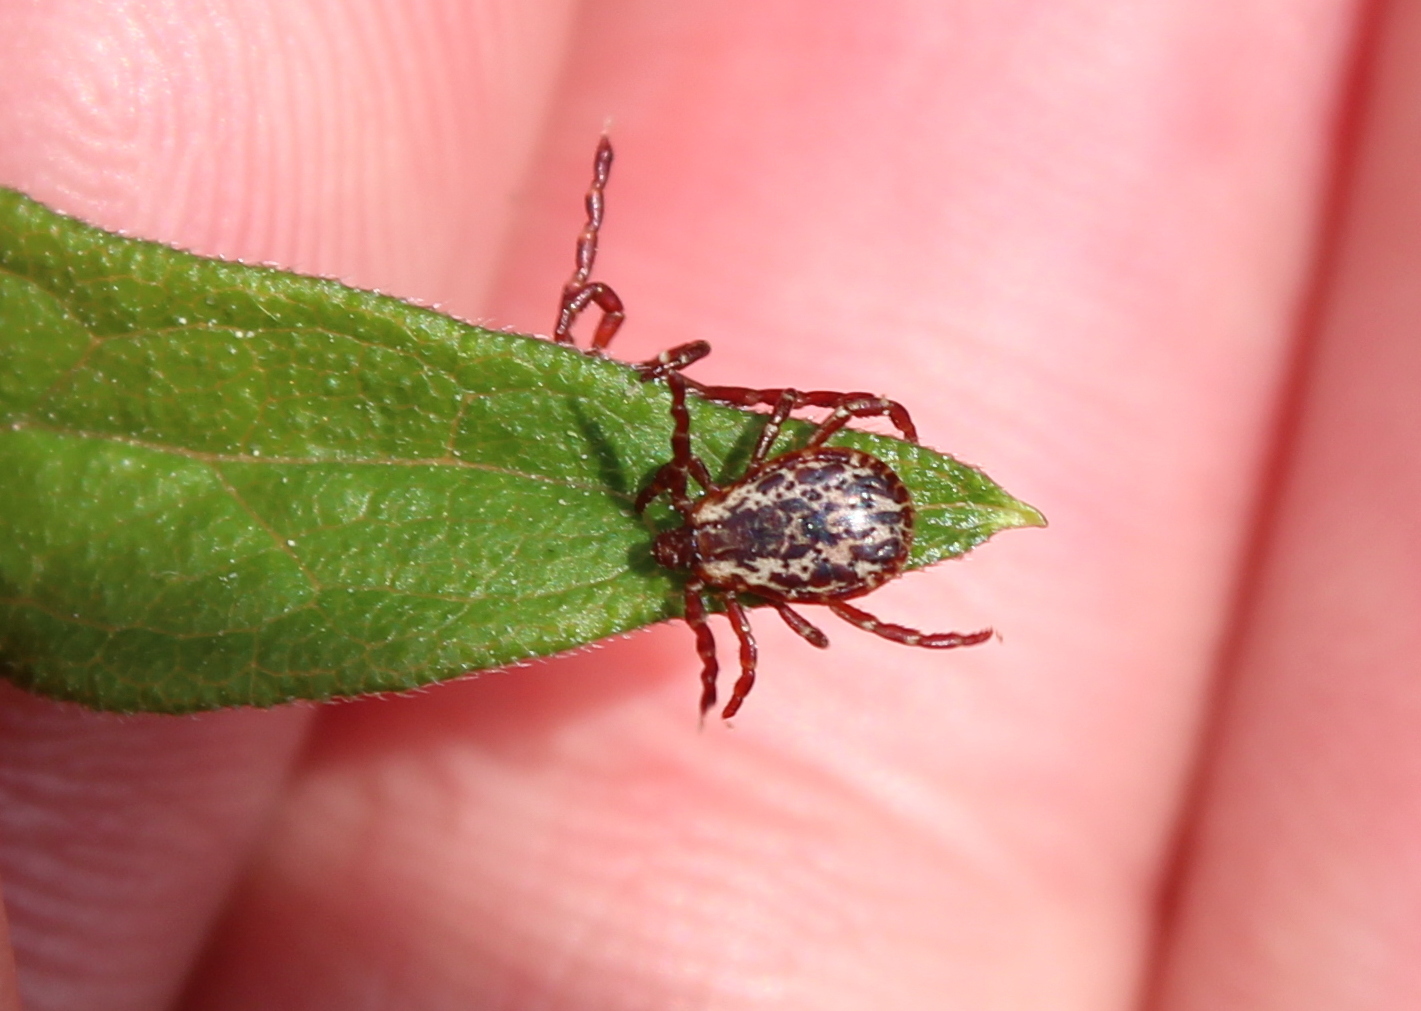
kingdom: Animalia
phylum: Arthropoda
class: Arachnida
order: Ixodida
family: Ixodidae
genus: Dermacentor
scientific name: Dermacentor variabilis
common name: American dog tick
